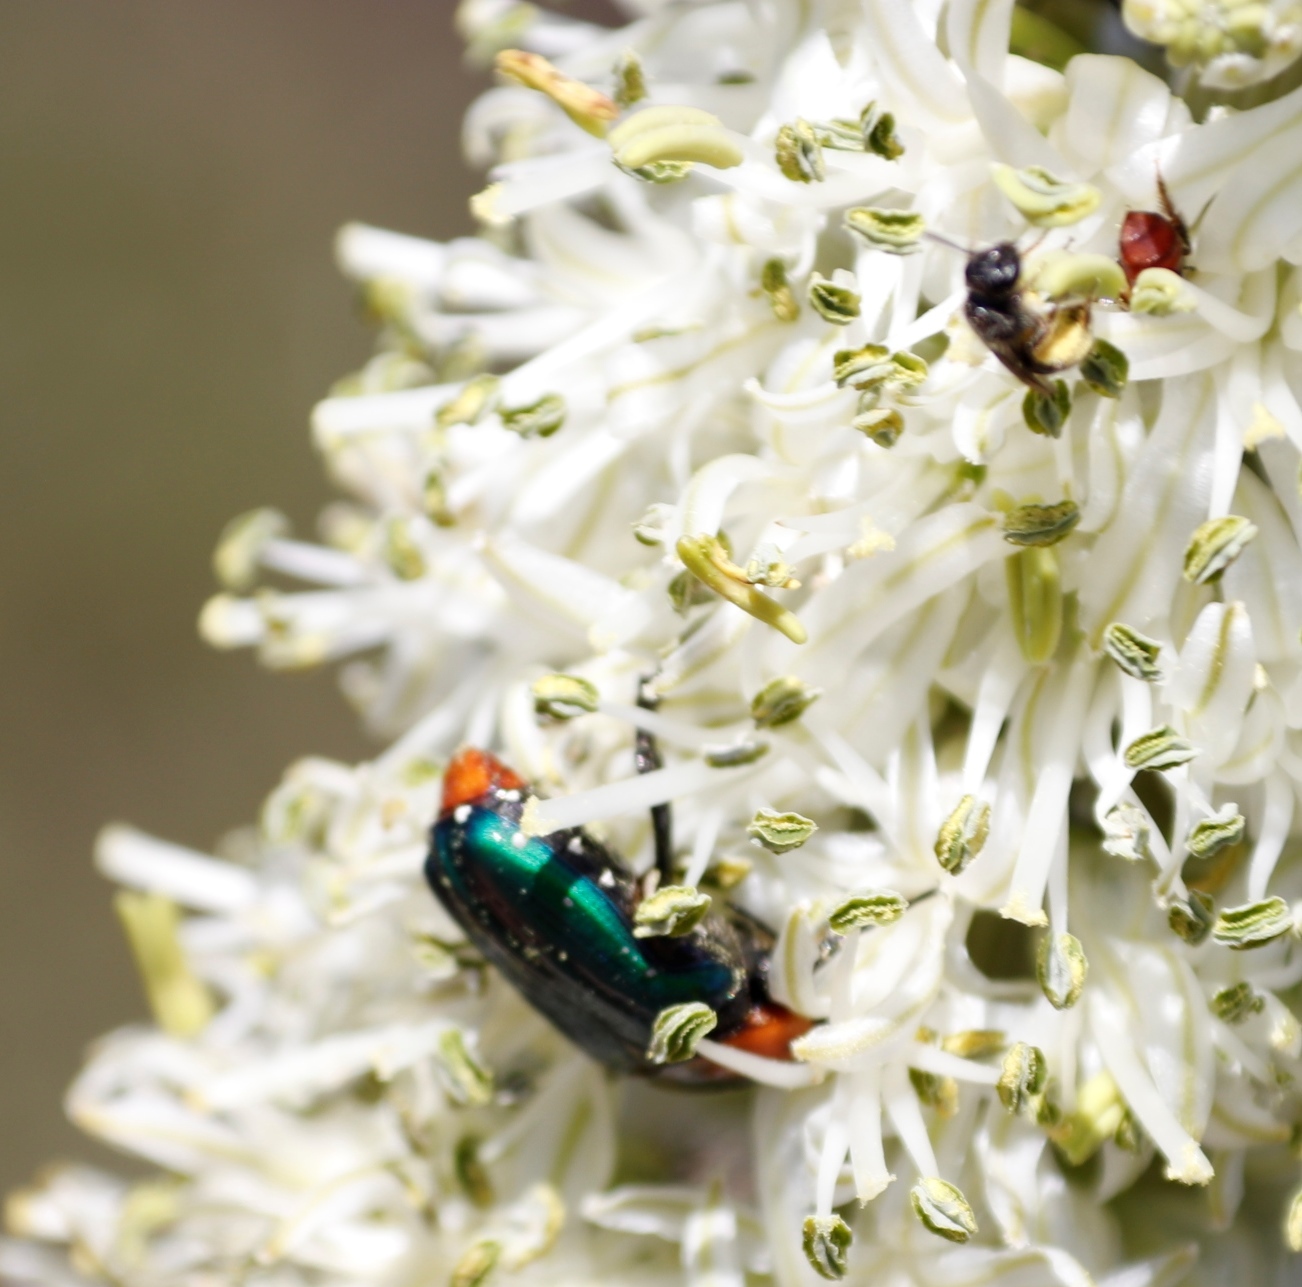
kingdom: Plantae
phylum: Tracheophyta
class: Liliopsida
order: Asparagales
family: Asparagaceae
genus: Drimia
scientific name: Drimia capensis
